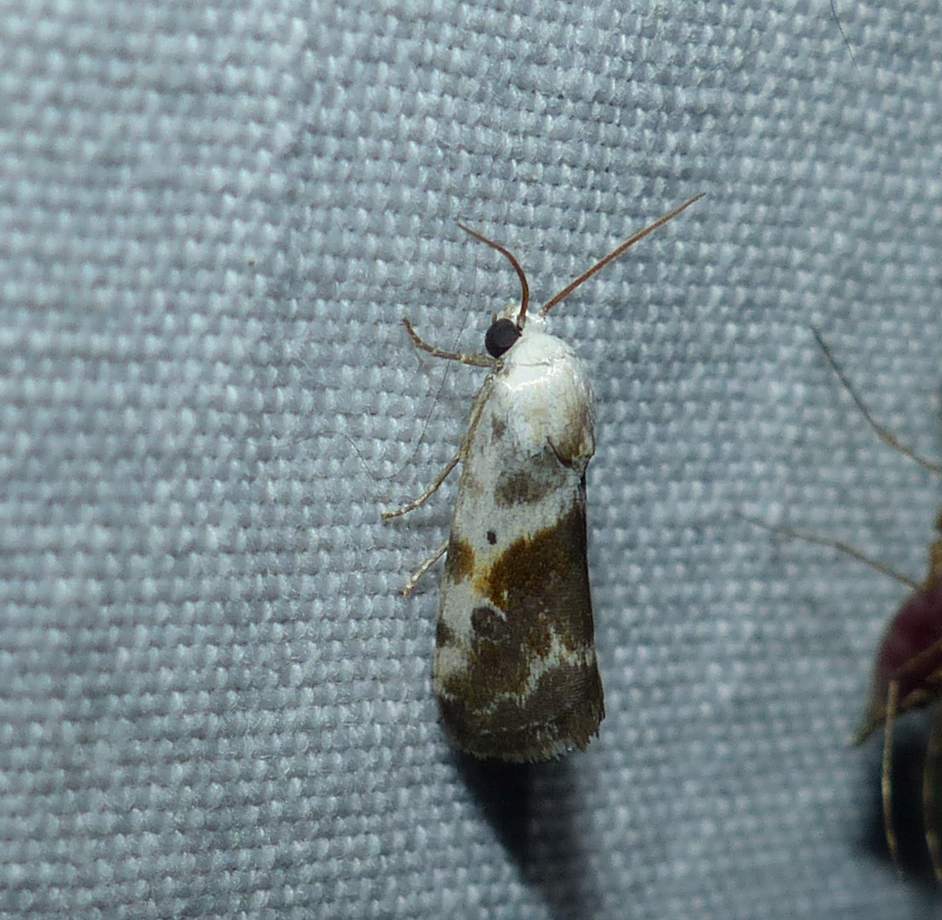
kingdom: Animalia
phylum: Arthropoda
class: Insecta
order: Lepidoptera
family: Noctuidae
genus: Acontia
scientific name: Acontia candefacta
